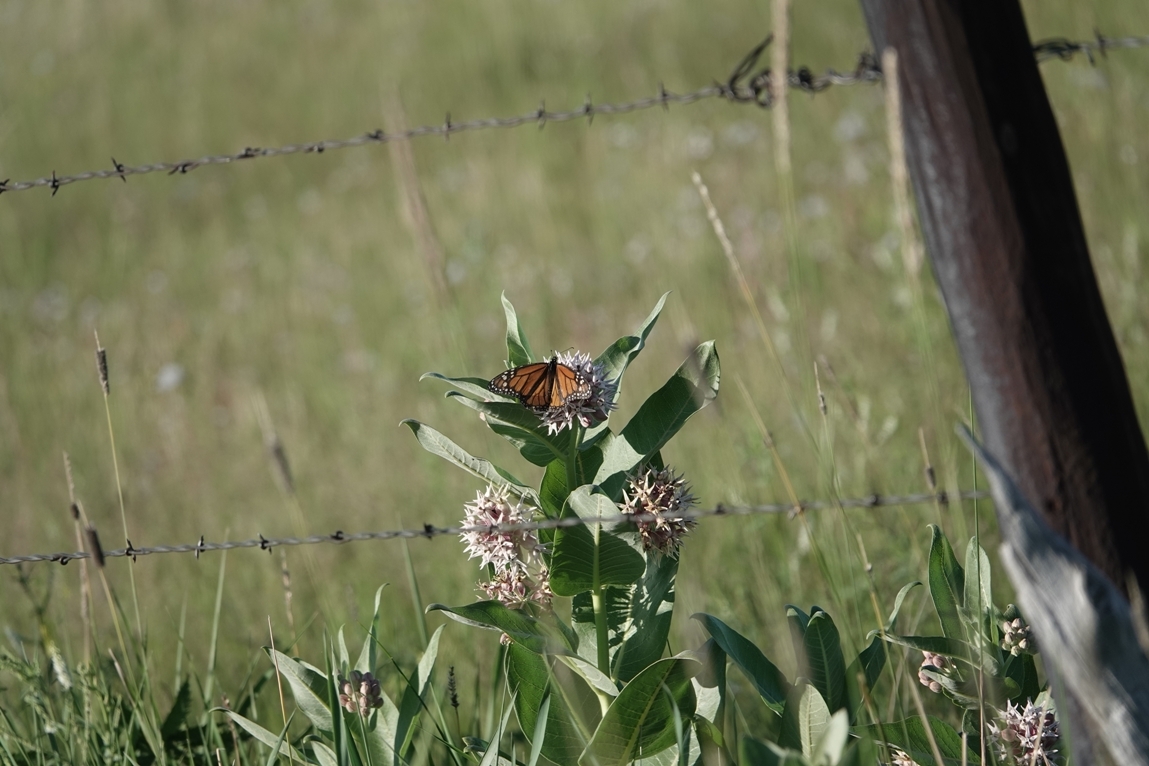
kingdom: Animalia
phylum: Arthropoda
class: Insecta
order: Lepidoptera
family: Nymphalidae
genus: Danaus
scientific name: Danaus plexippus
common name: Monarch
